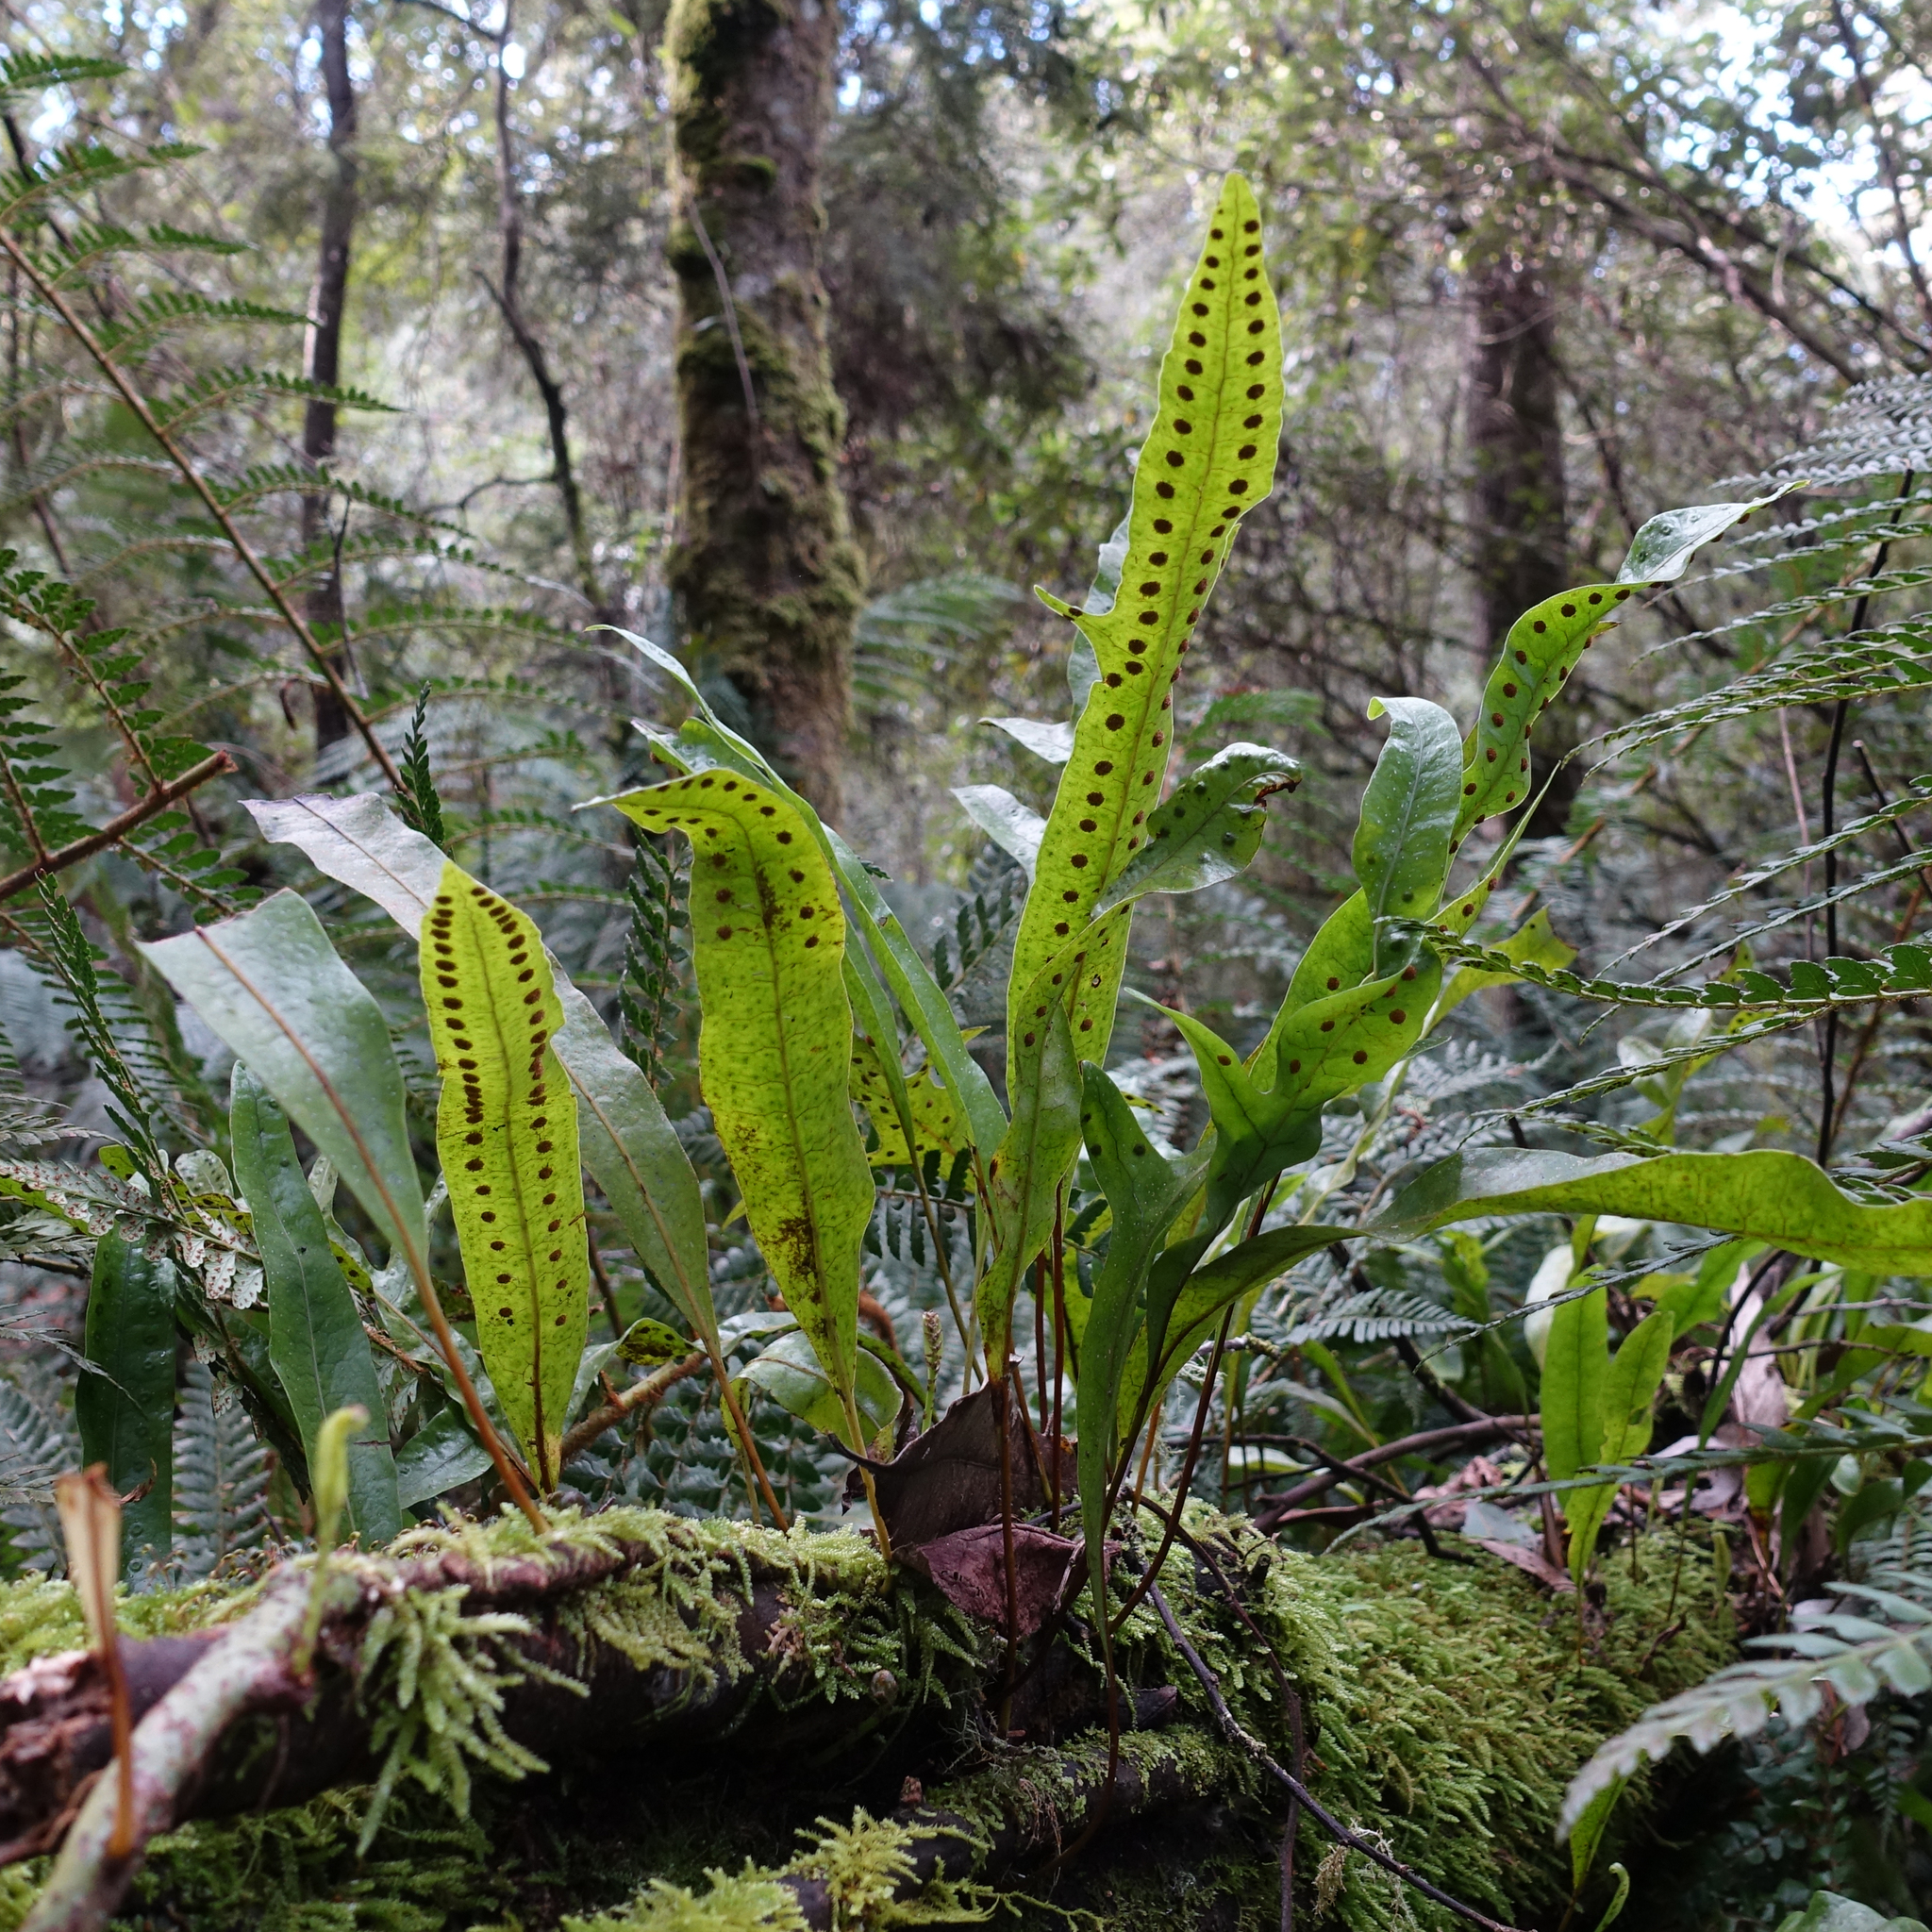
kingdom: Plantae
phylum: Tracheophyta
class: Polypodiopsida
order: Polypodiales
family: Polypodiaceae
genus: Lecanopteris
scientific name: Lecanopteris pustulata
